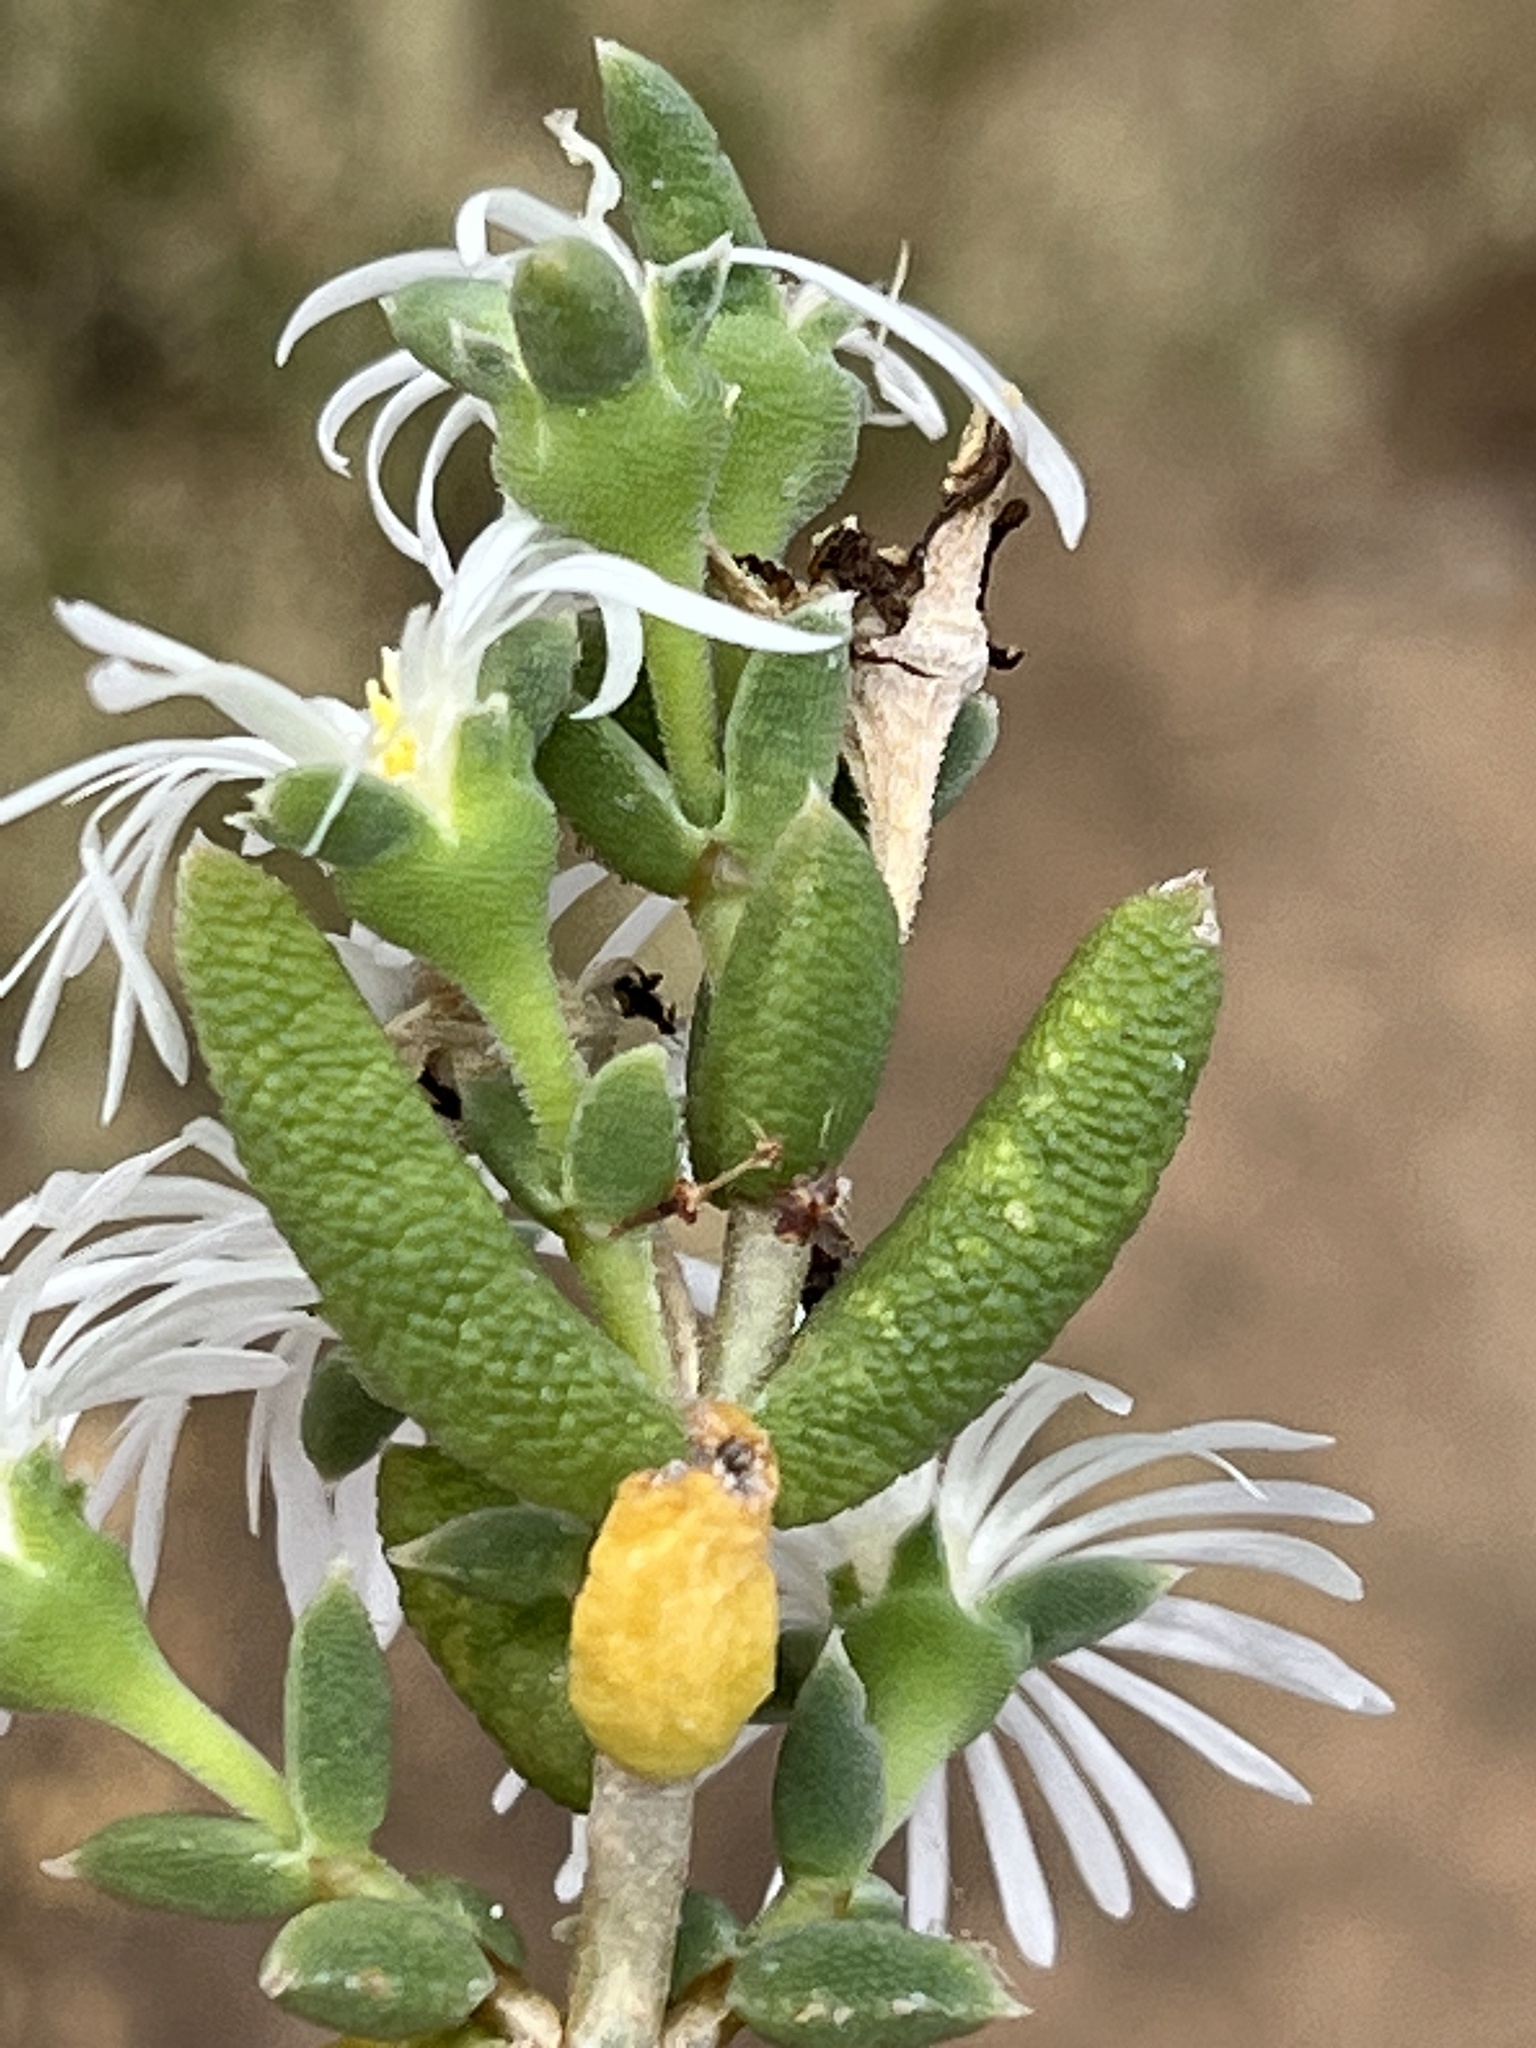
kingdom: Plantae
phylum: Tracheophyta
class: Magnoliopsida
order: Caryophyllales
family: Aizoaceae
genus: Trichodiadema
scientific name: Trichodiadema attonsum
